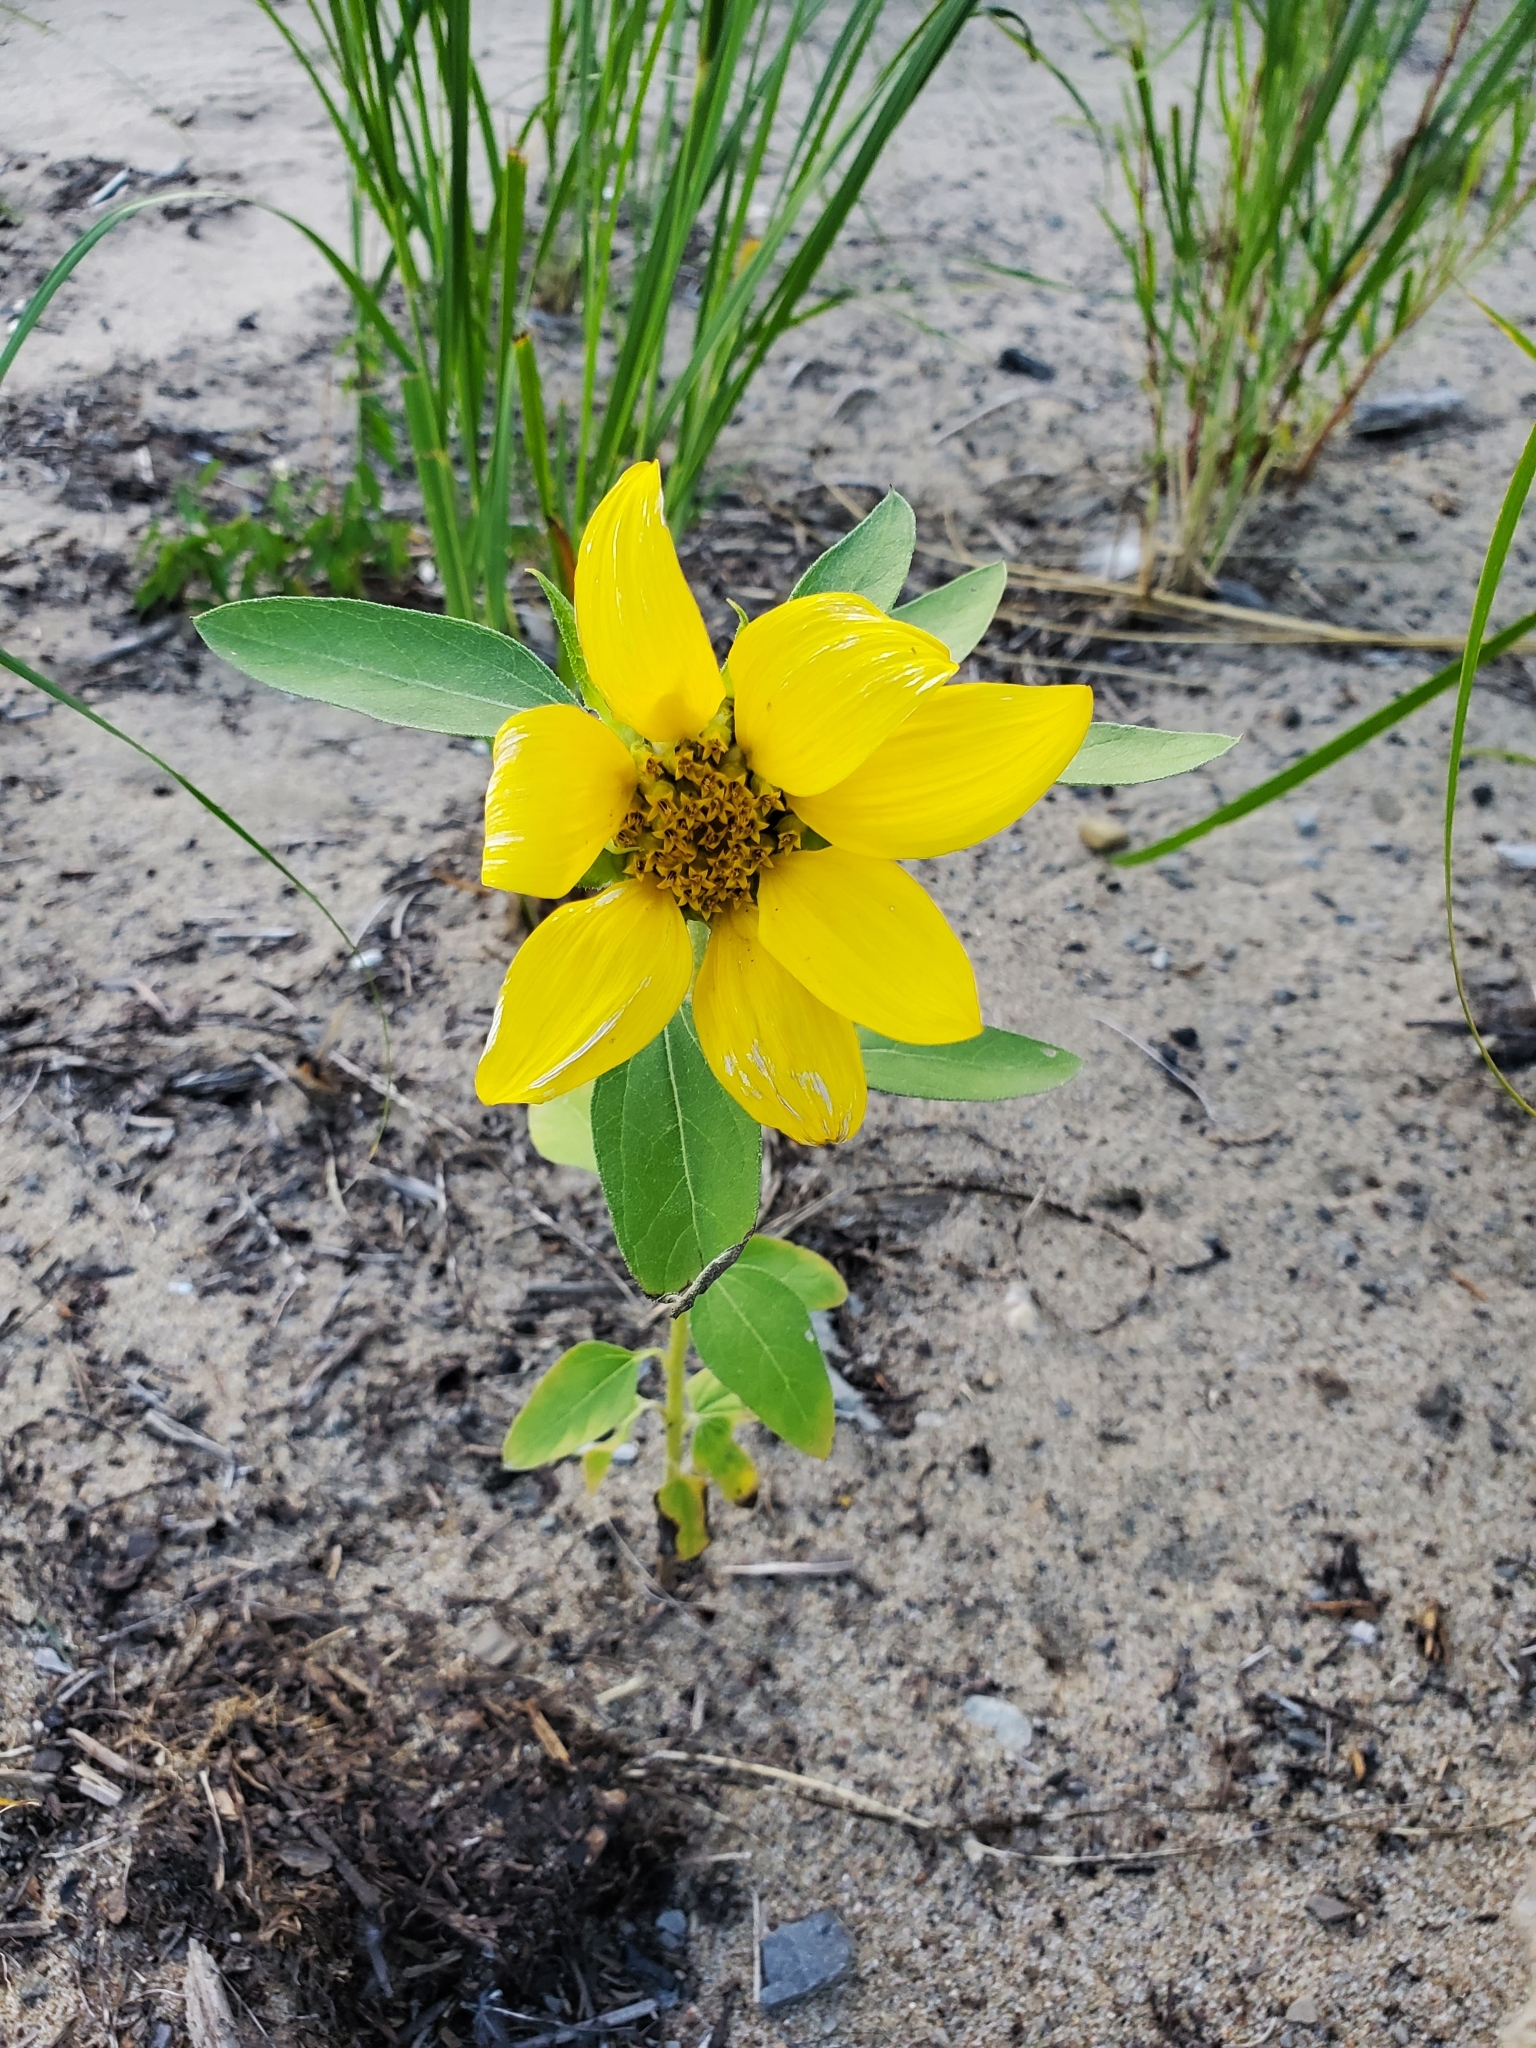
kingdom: Plantae
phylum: Tracheophyta
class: Magnoliopsida
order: Asterales
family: Asteraceae
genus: Helianthus
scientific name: Helianthus annuus
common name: Sunflower
